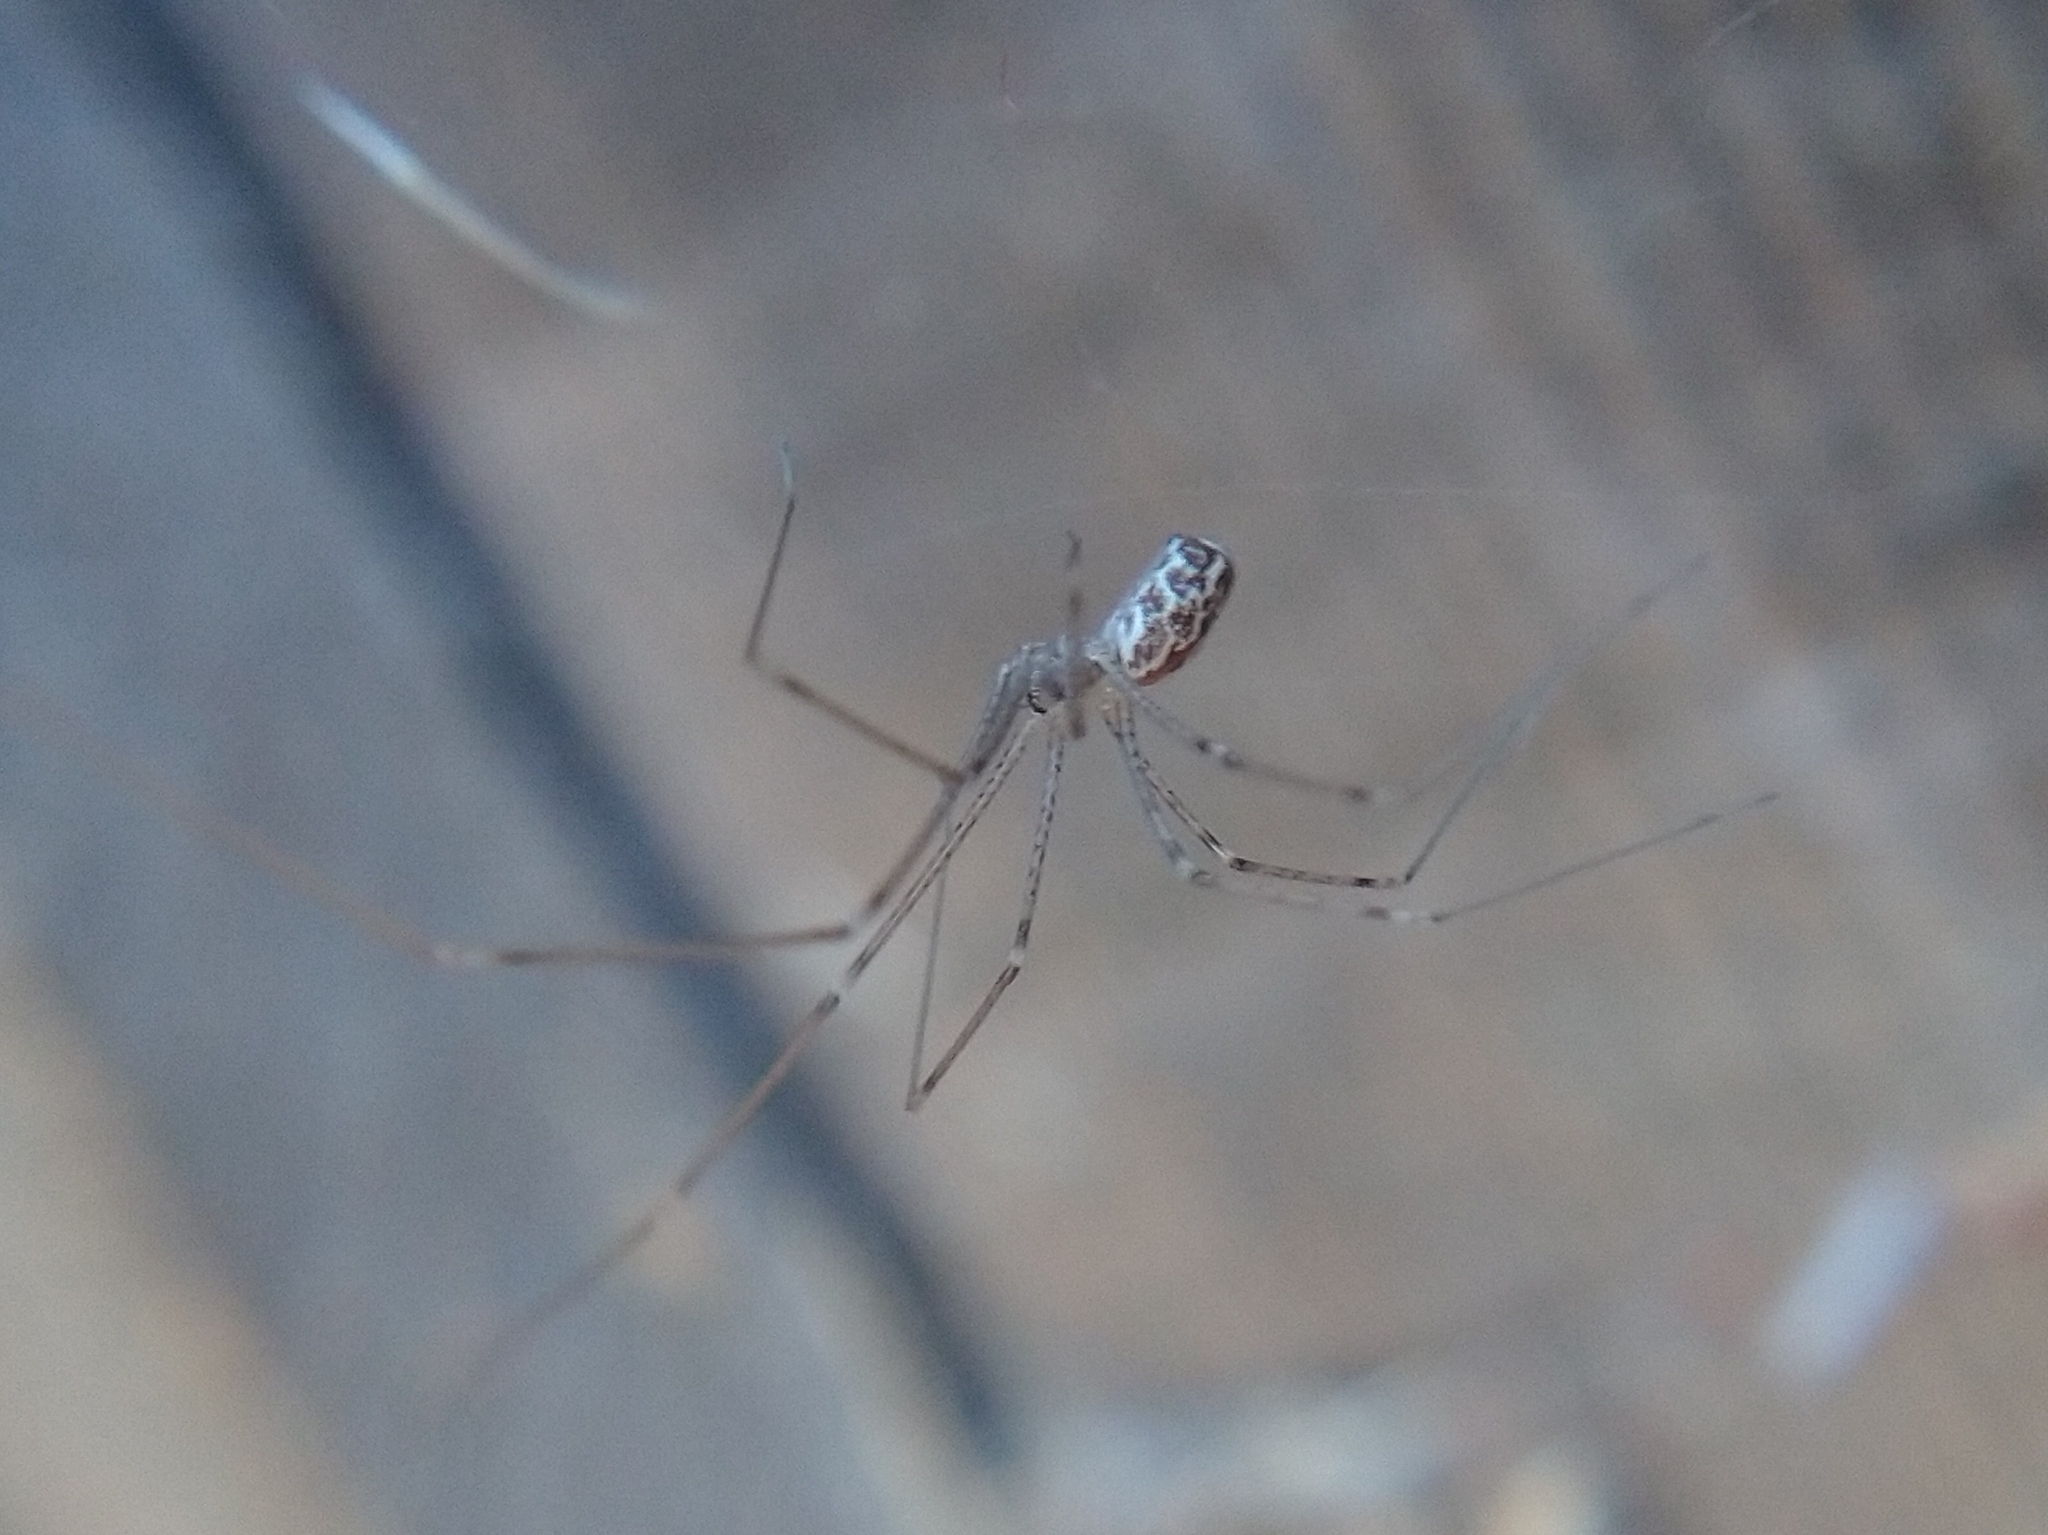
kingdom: Animalia
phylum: Arthropoda
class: Arachnida
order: Araneae
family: Pholcidae
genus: Holocnemus
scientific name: Holocnemus pluchei
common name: Marbled cellar spider
